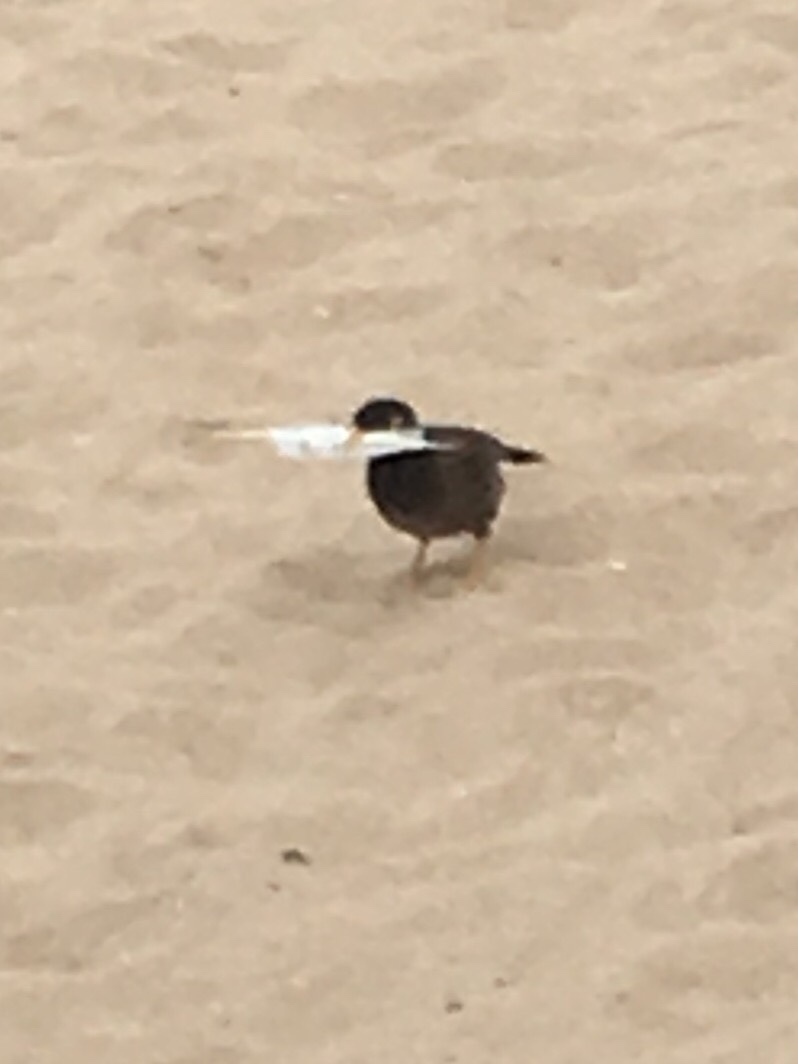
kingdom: Animalia
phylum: Chordata
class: Aves
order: Passeriformes
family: Sturnidae
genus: Acridotheres
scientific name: Acridotheres tristis
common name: Common myna
